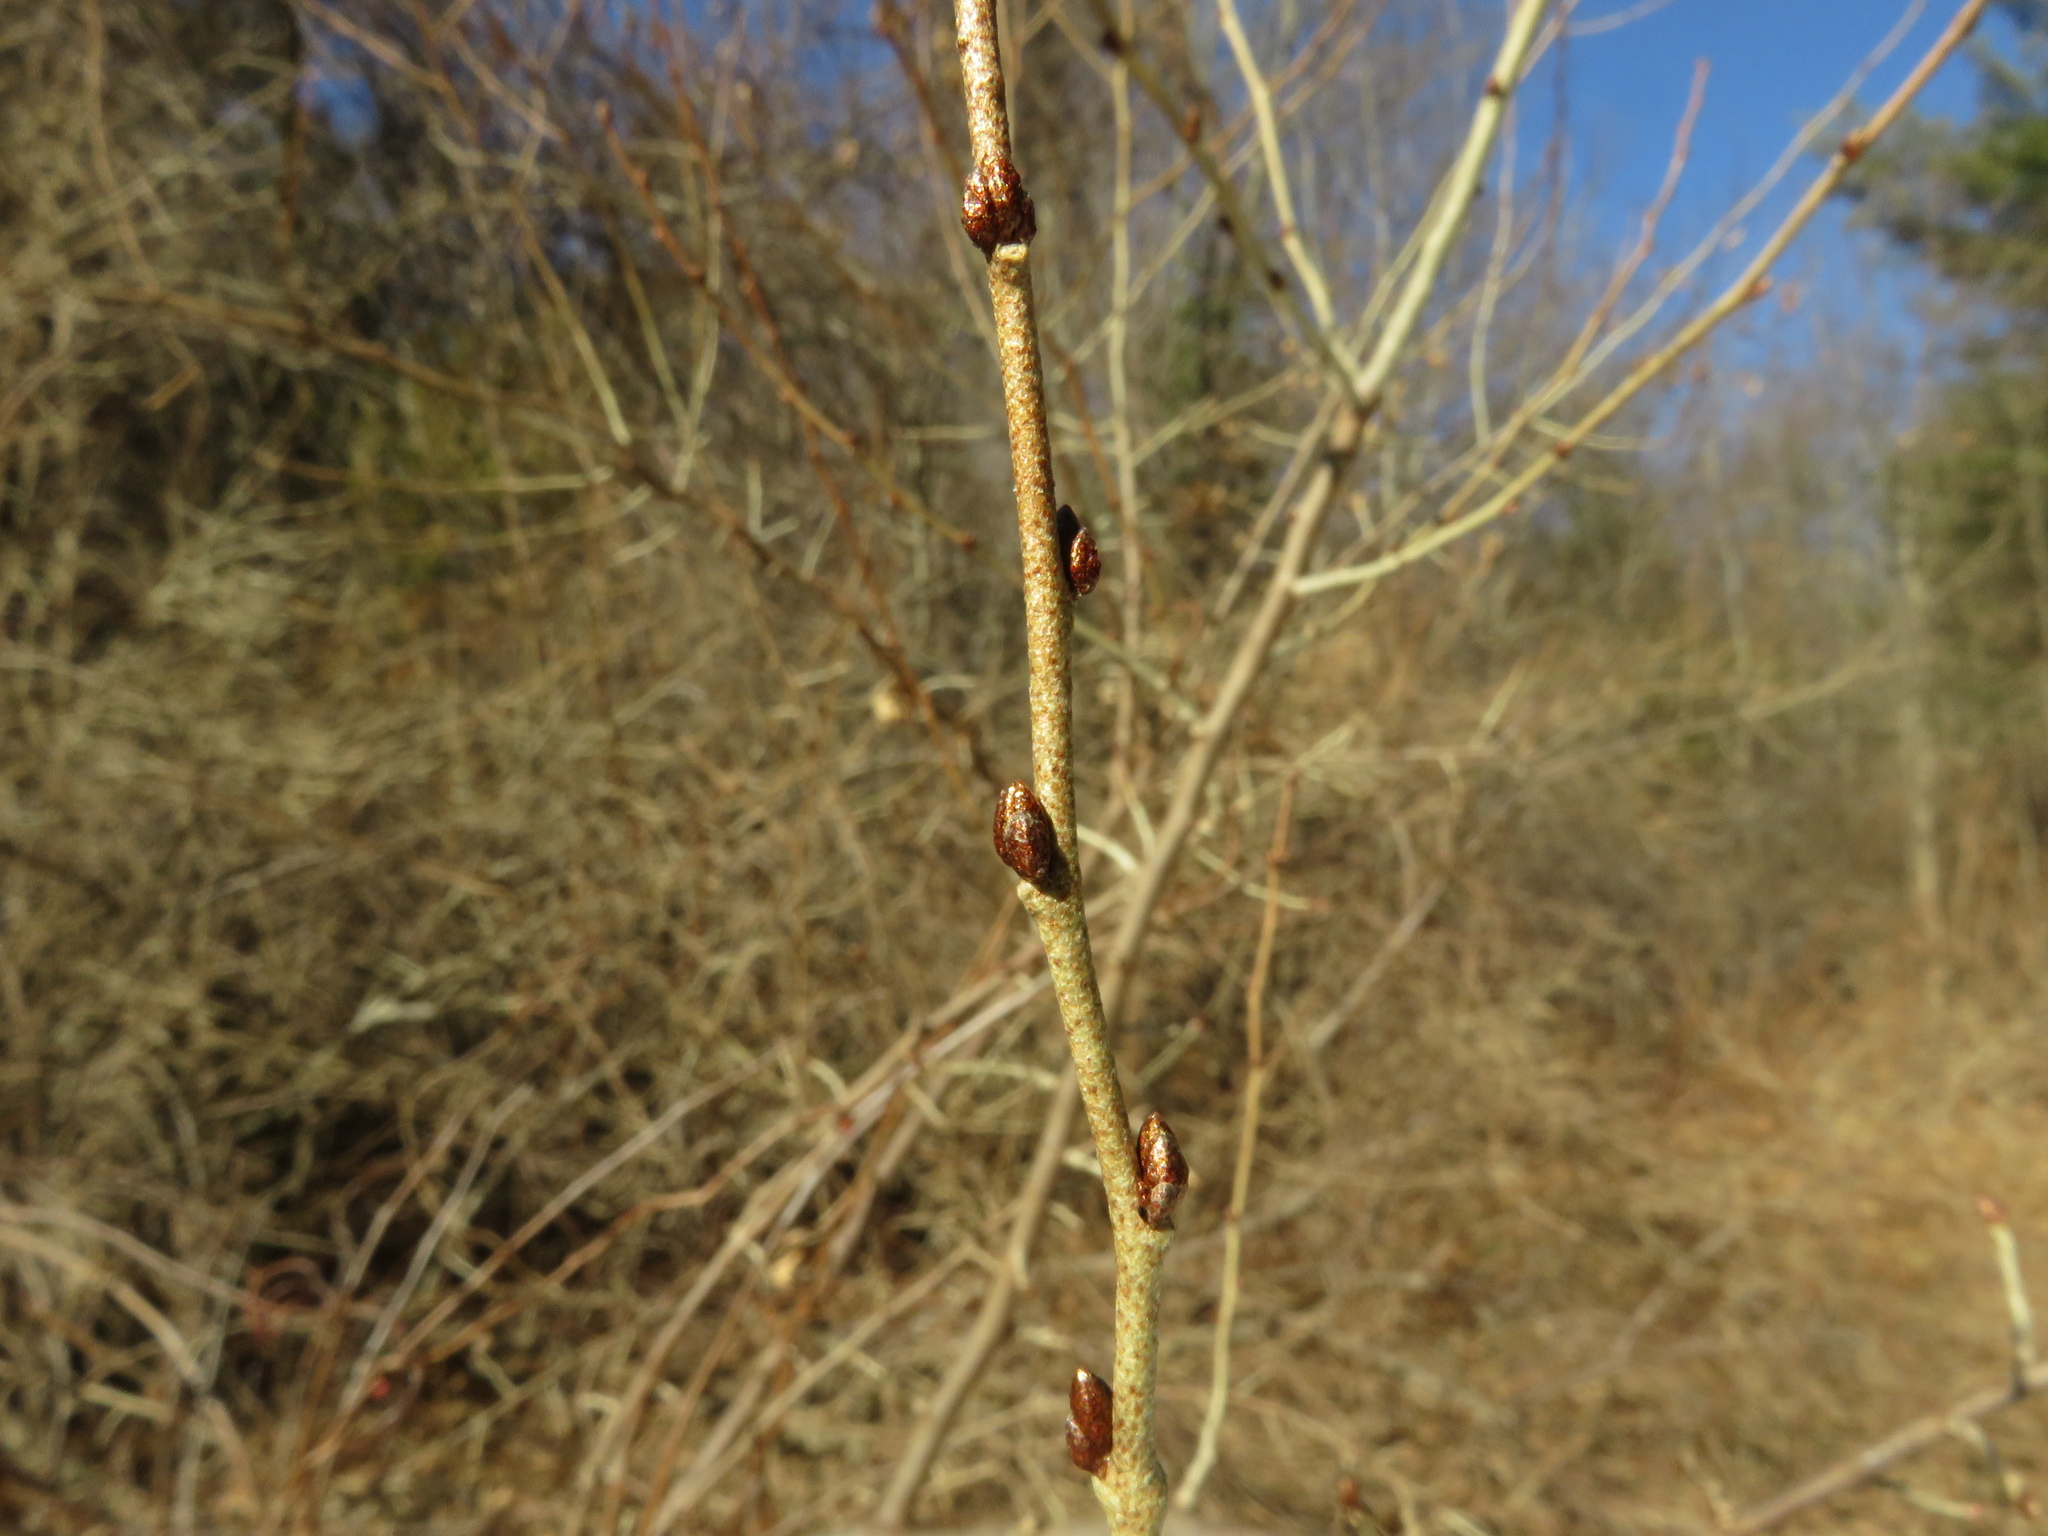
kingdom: Plantae
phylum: Tracheophyta
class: Magnoliopsida
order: Rosales
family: Elaeagnaceae
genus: Elaeagnus
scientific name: Elaeagnus umbellata
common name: Autumn olive
